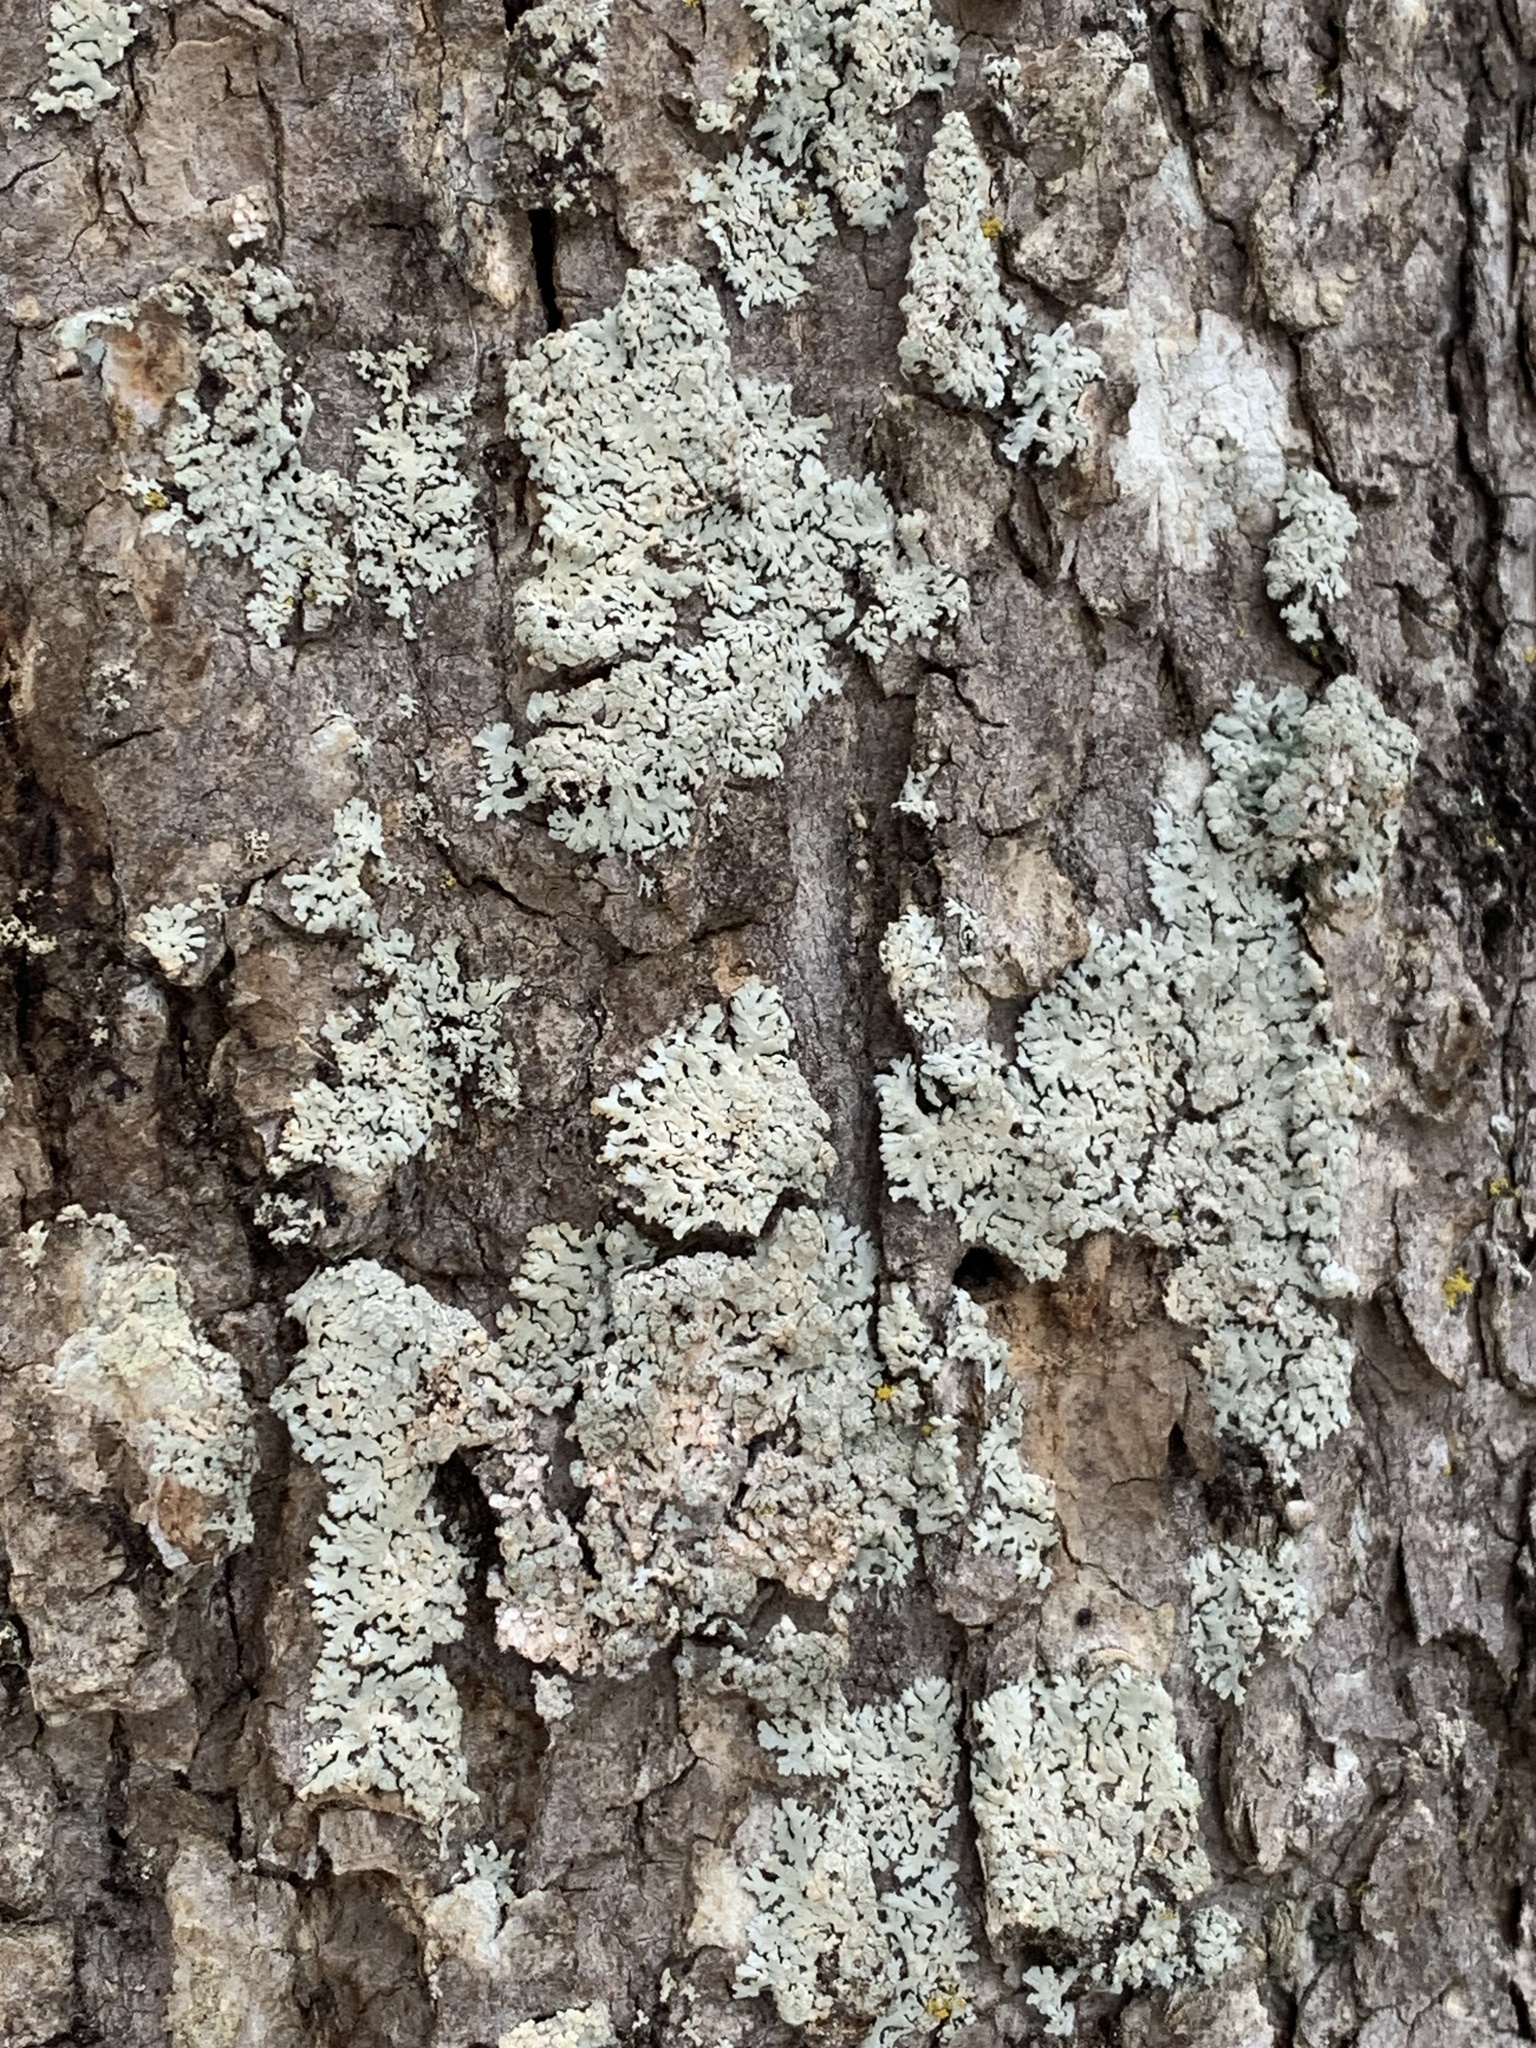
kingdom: Fungi
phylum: Ascomycota
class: Lecanoromycetes
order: Caliciales
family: Physciaceae
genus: Physcia
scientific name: Physcia americana
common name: American rosette lichen
